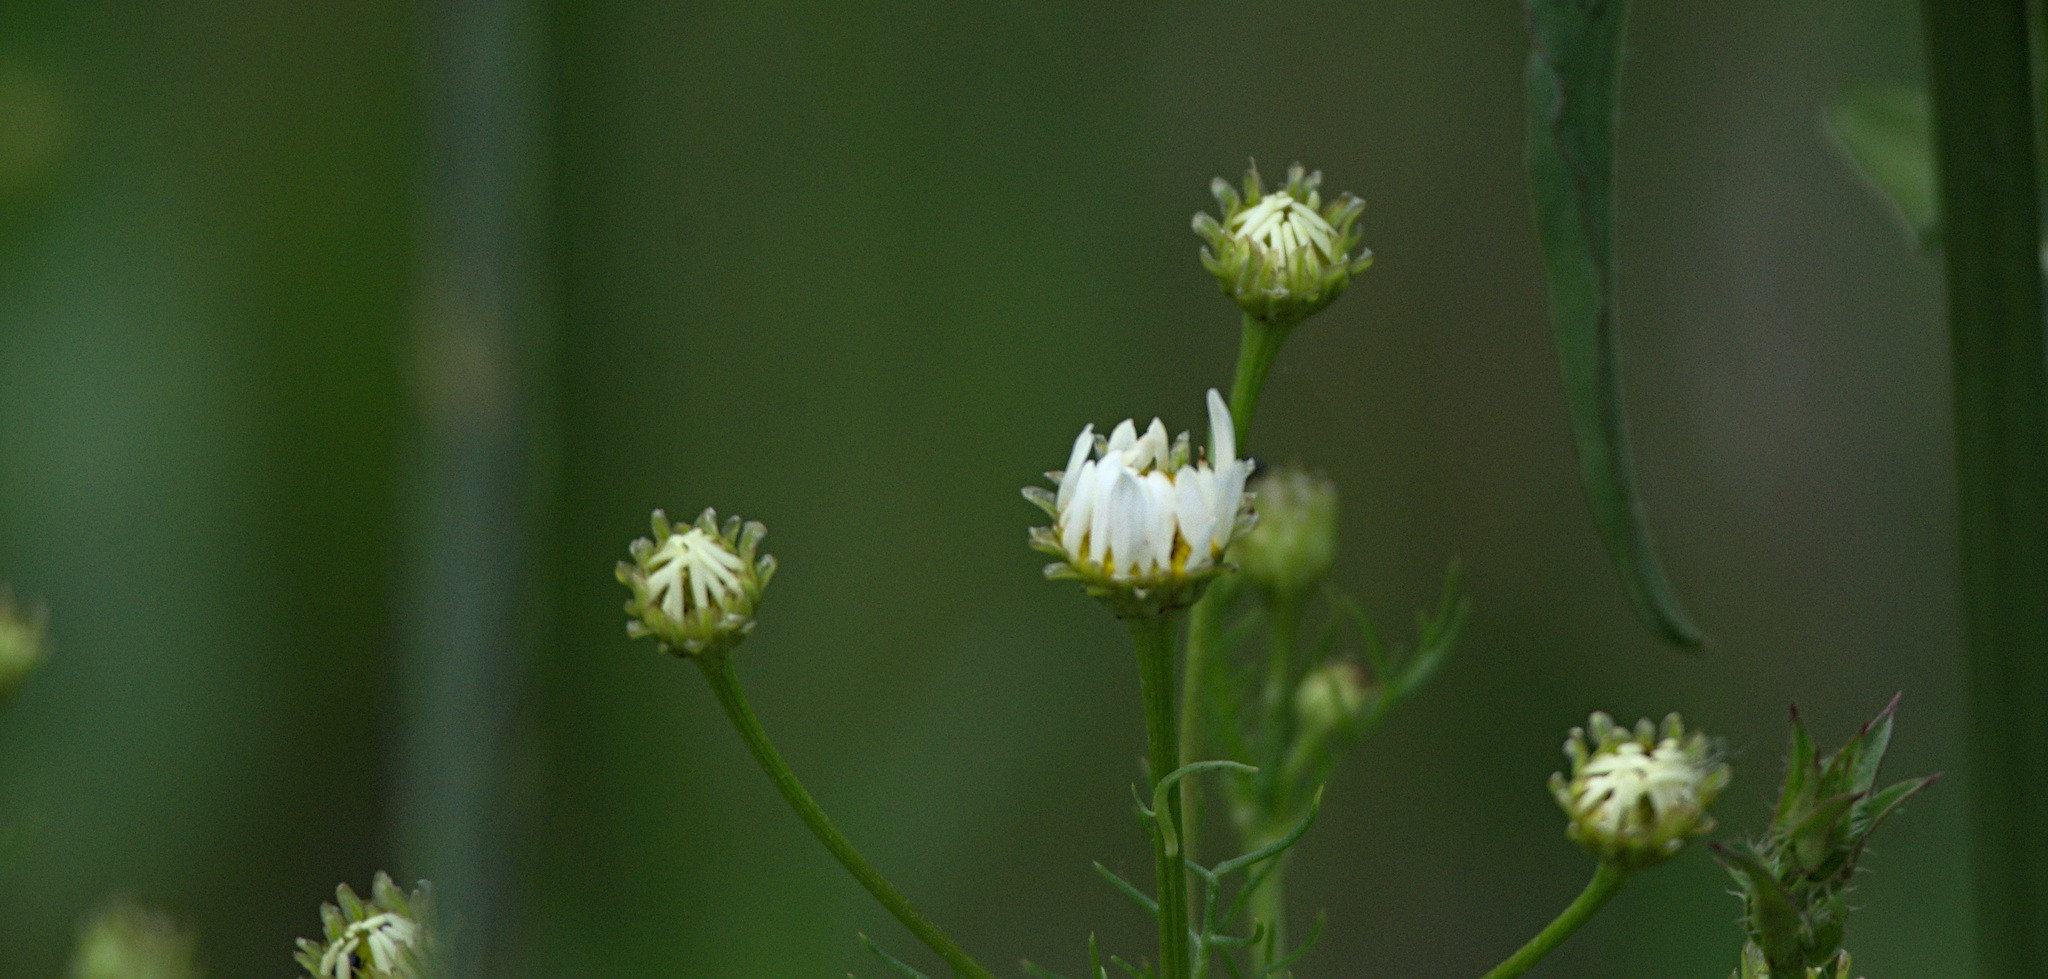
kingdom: Plantae
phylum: Tracheophyta
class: Magnoliopsida
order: Asterales
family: Asteraceae
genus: Tripleurospermum
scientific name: Tripleurospermum inodorum
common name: Scentless mayweed
